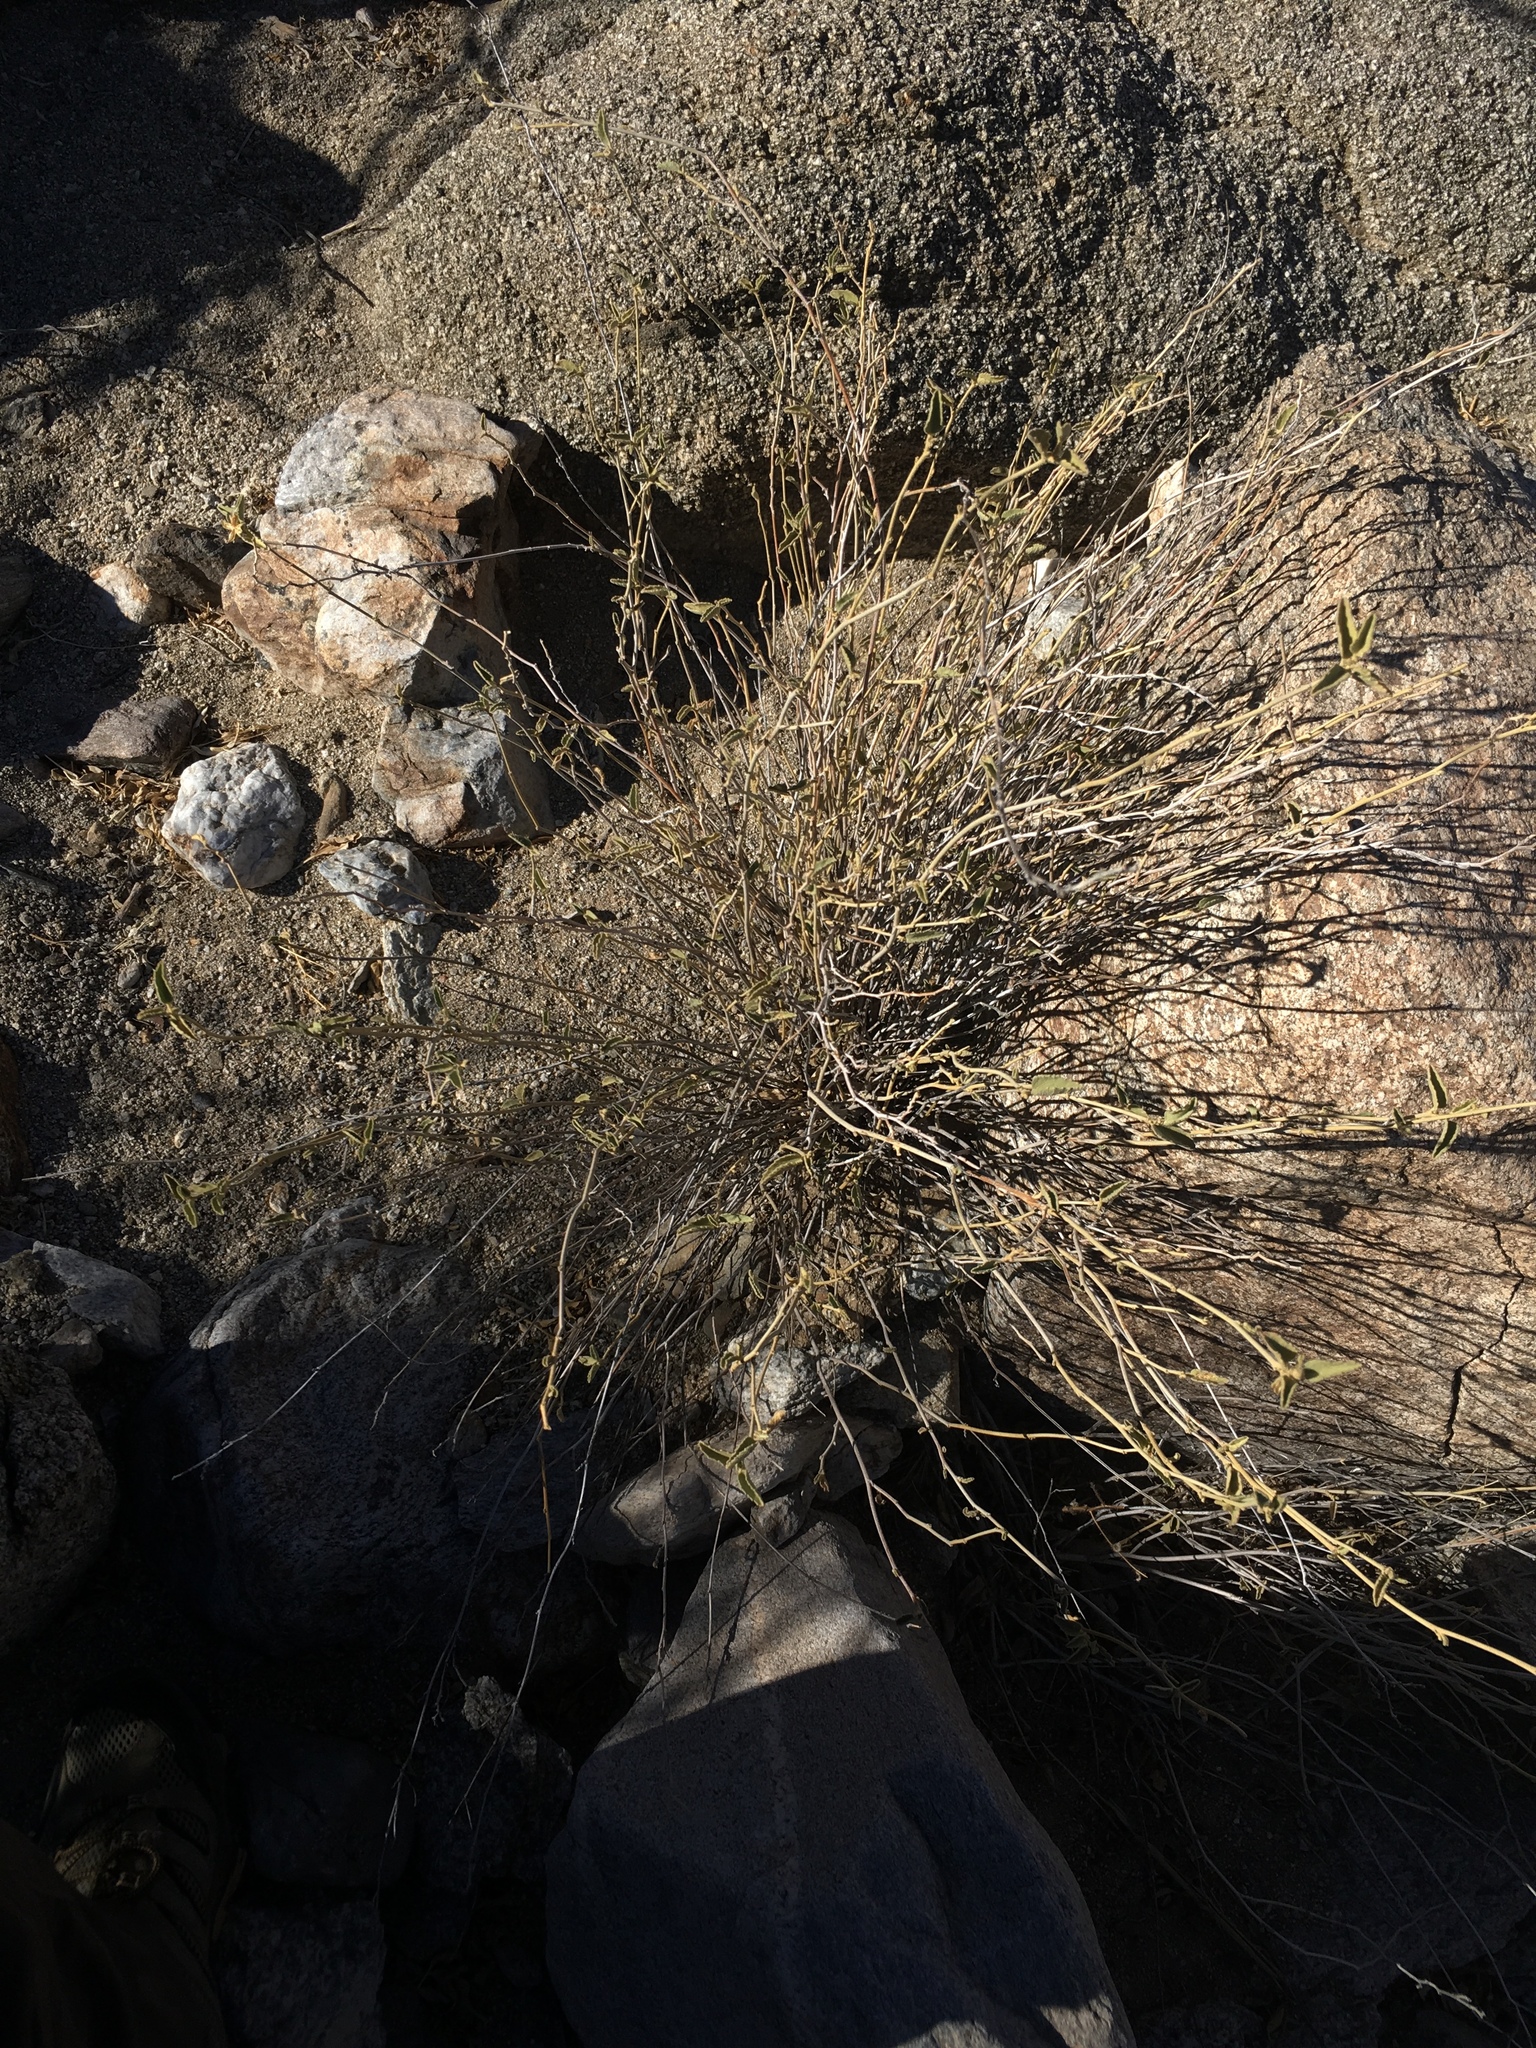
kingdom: Plantae
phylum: Tracheophyta
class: Magnoliopsida
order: Malvales
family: Malvaceae
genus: Hibiscus
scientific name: Hibiscus denudatus
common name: Paleface
